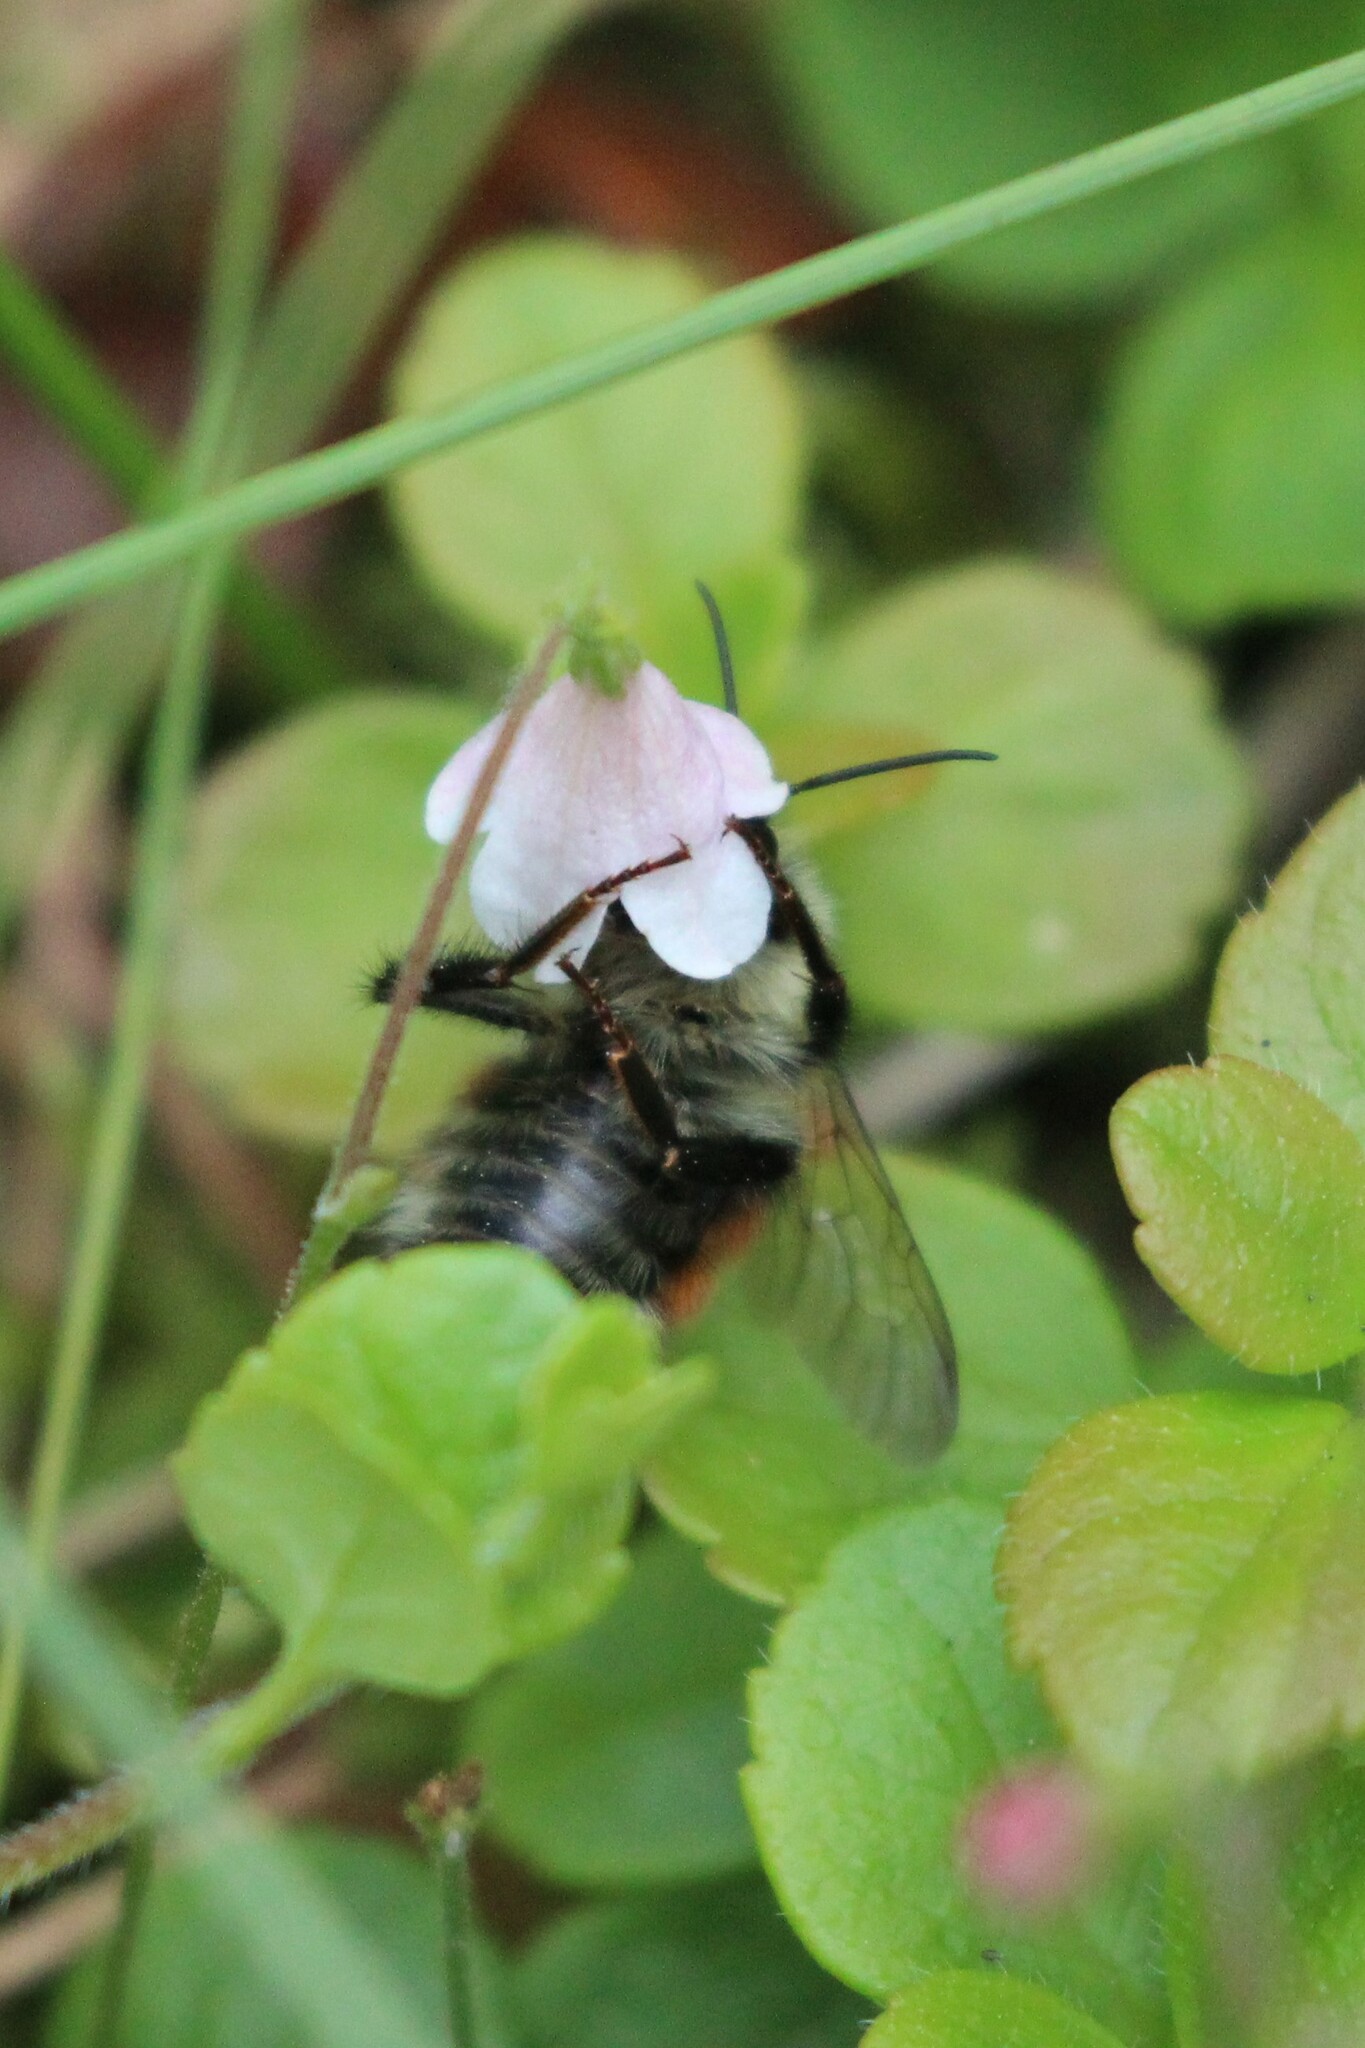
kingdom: Animalia
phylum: Arthropoda
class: Insecta
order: Hymenoptera
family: Apidae
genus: Bombus
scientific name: Bombus ternarius
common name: Tri-colored bumble bee
